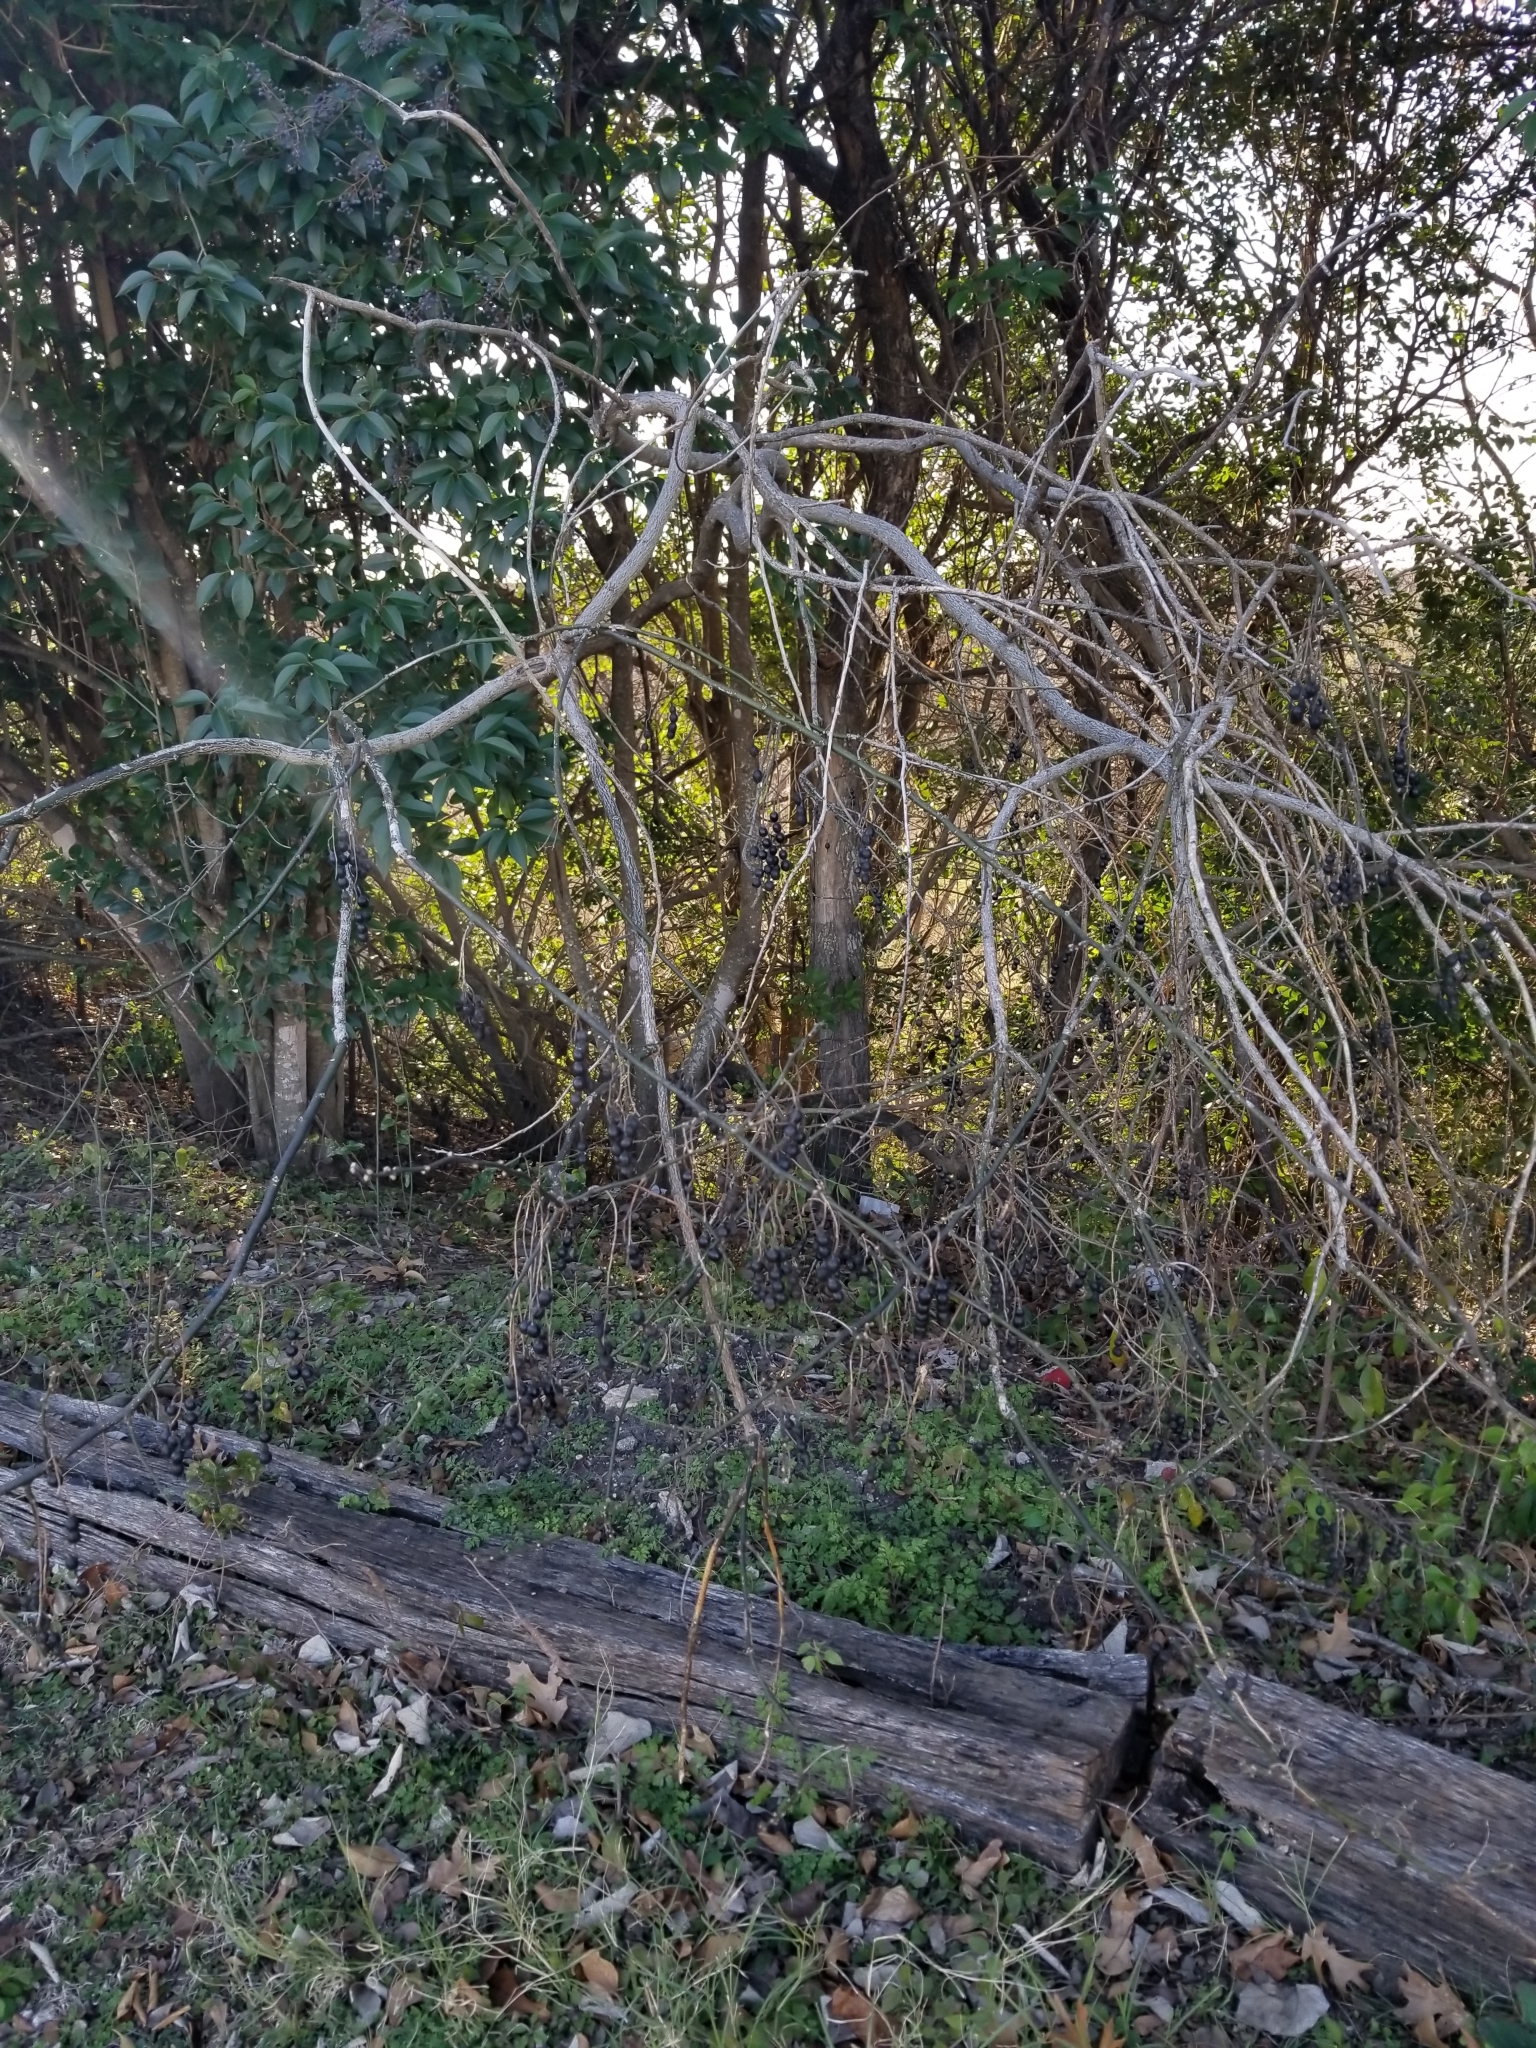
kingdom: Plantae
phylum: Tracheophyta
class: Magnoliopsida
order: Fabales
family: Fabaceae
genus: Styphnolobium
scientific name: Styphnolobium affine
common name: Texas sophora
